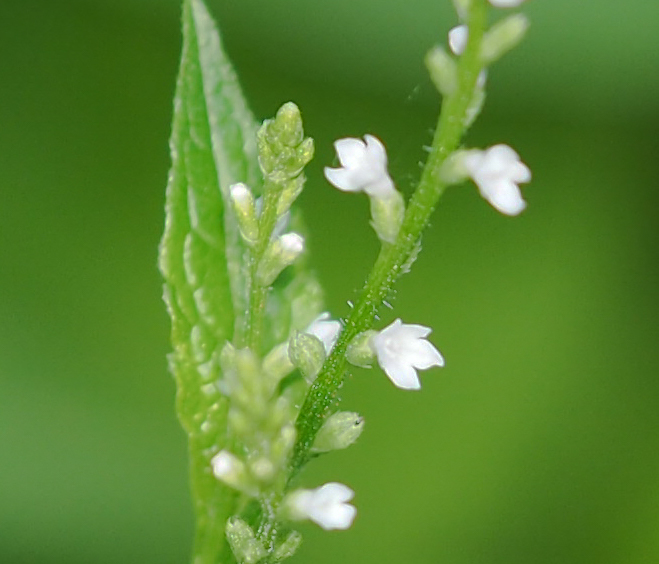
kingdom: Plantae
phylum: Tracheophyta
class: Magnoliopsida
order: Lamiales
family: Verbenaceae
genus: Verbena
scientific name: Verbena urticifolia
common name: Nettle-leaved vervain
